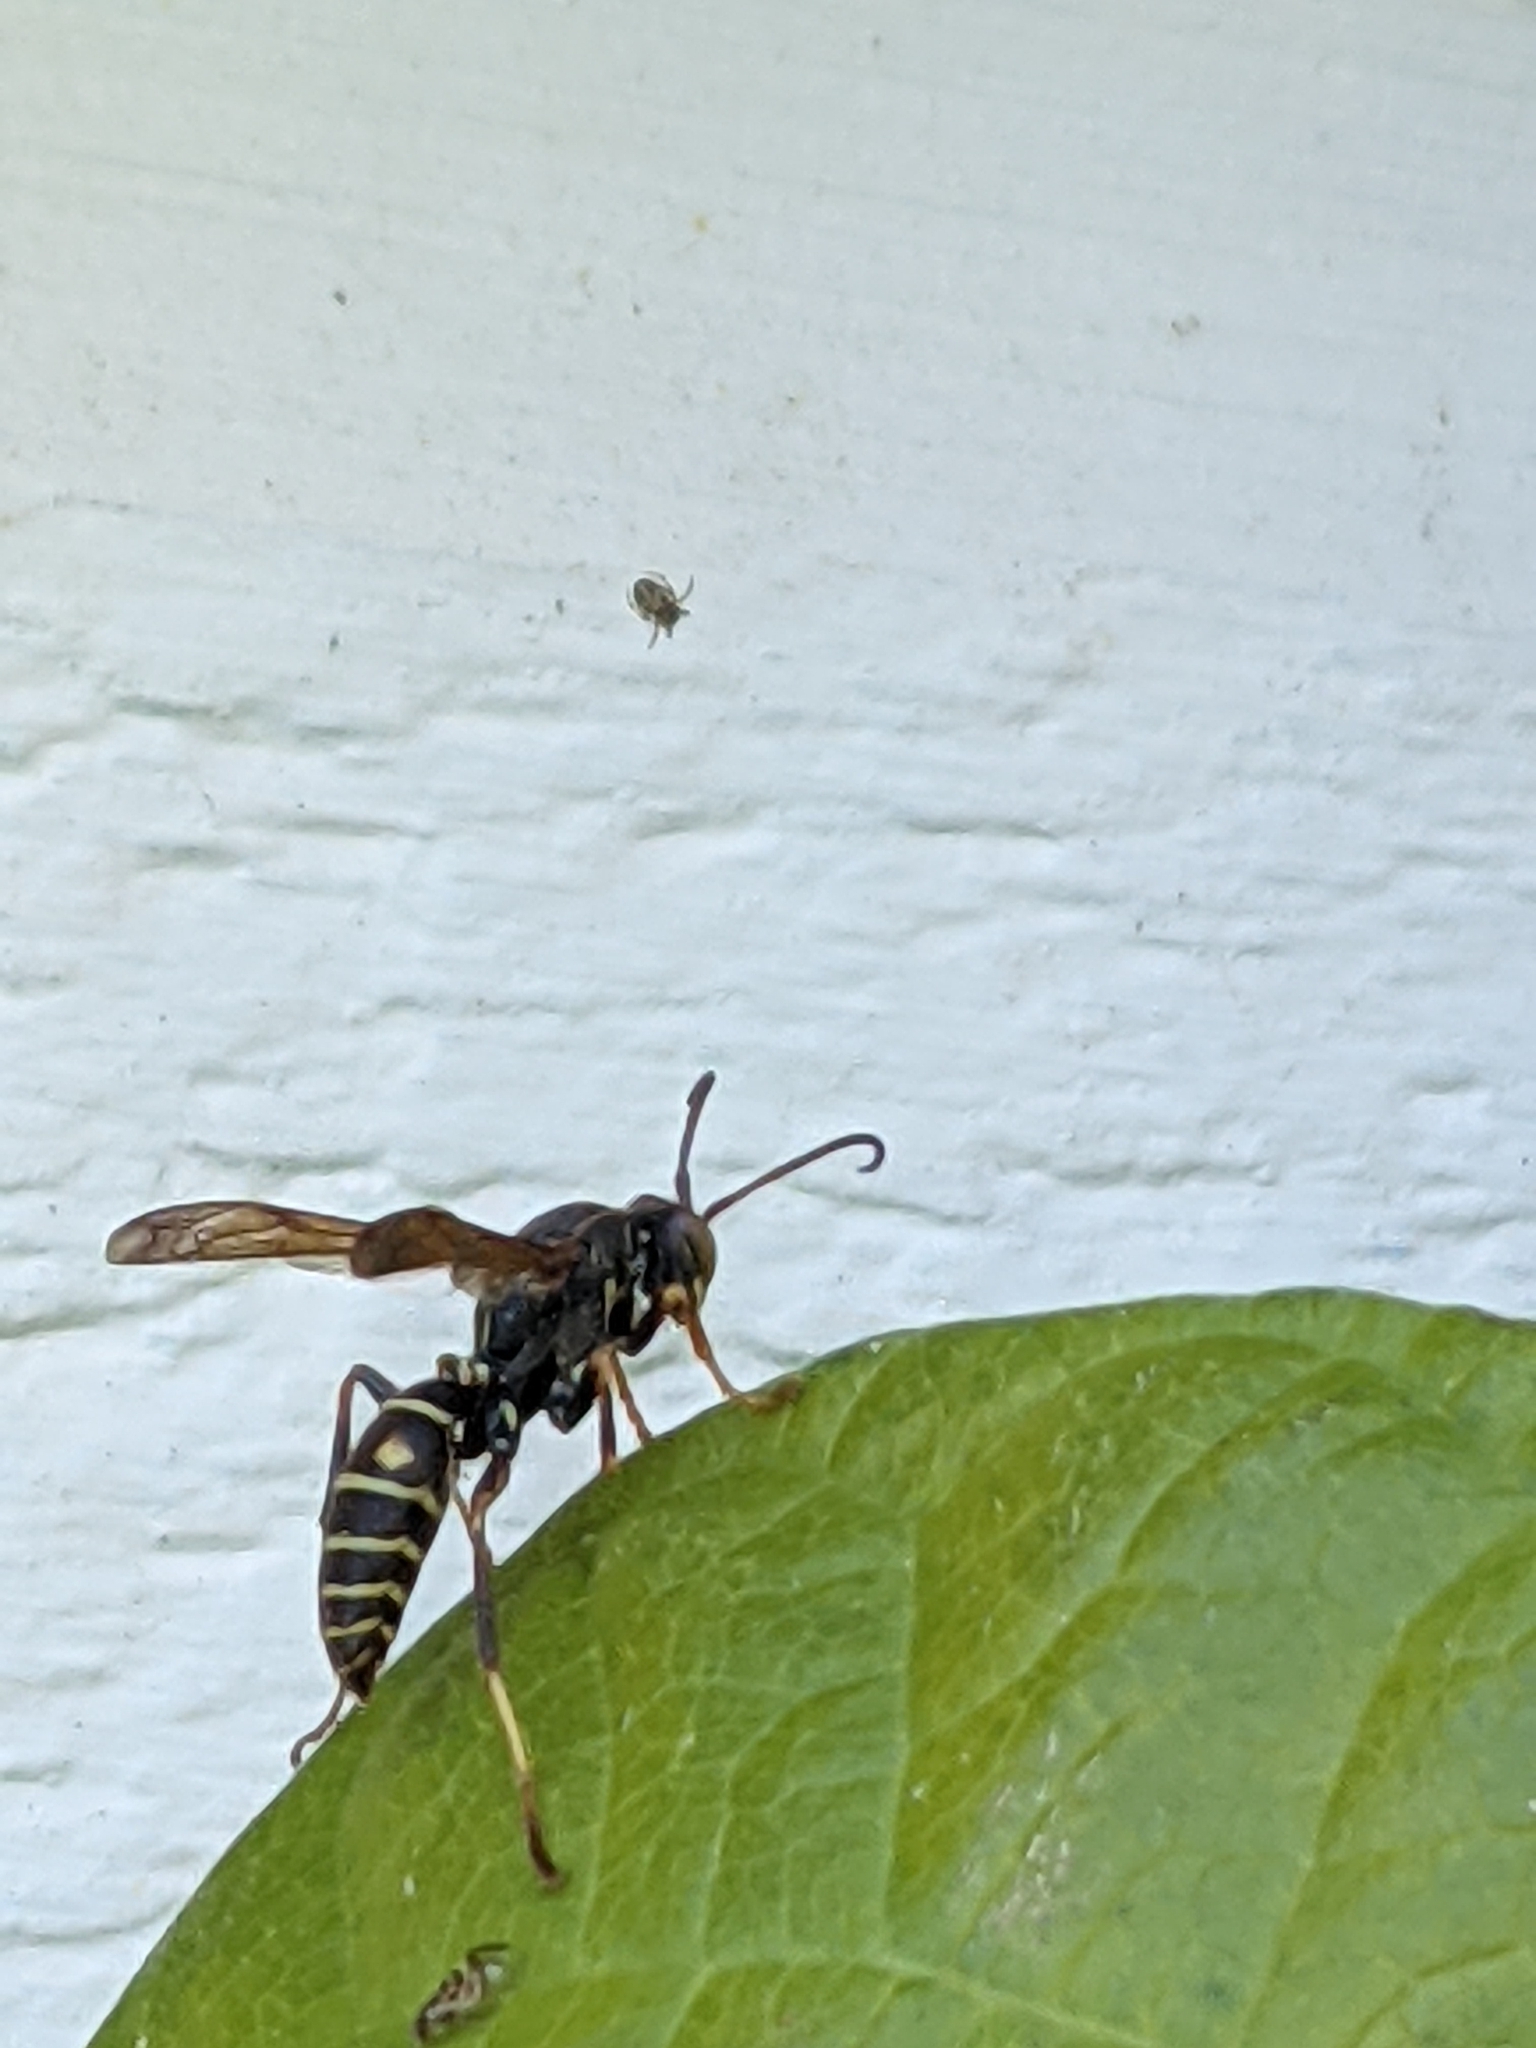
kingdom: Animalia
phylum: Arthropoda
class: Insecta
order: Hymenoptera
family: Eumenidae
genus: Polistes
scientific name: Polistes fuscatus
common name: Dark paper wasp
